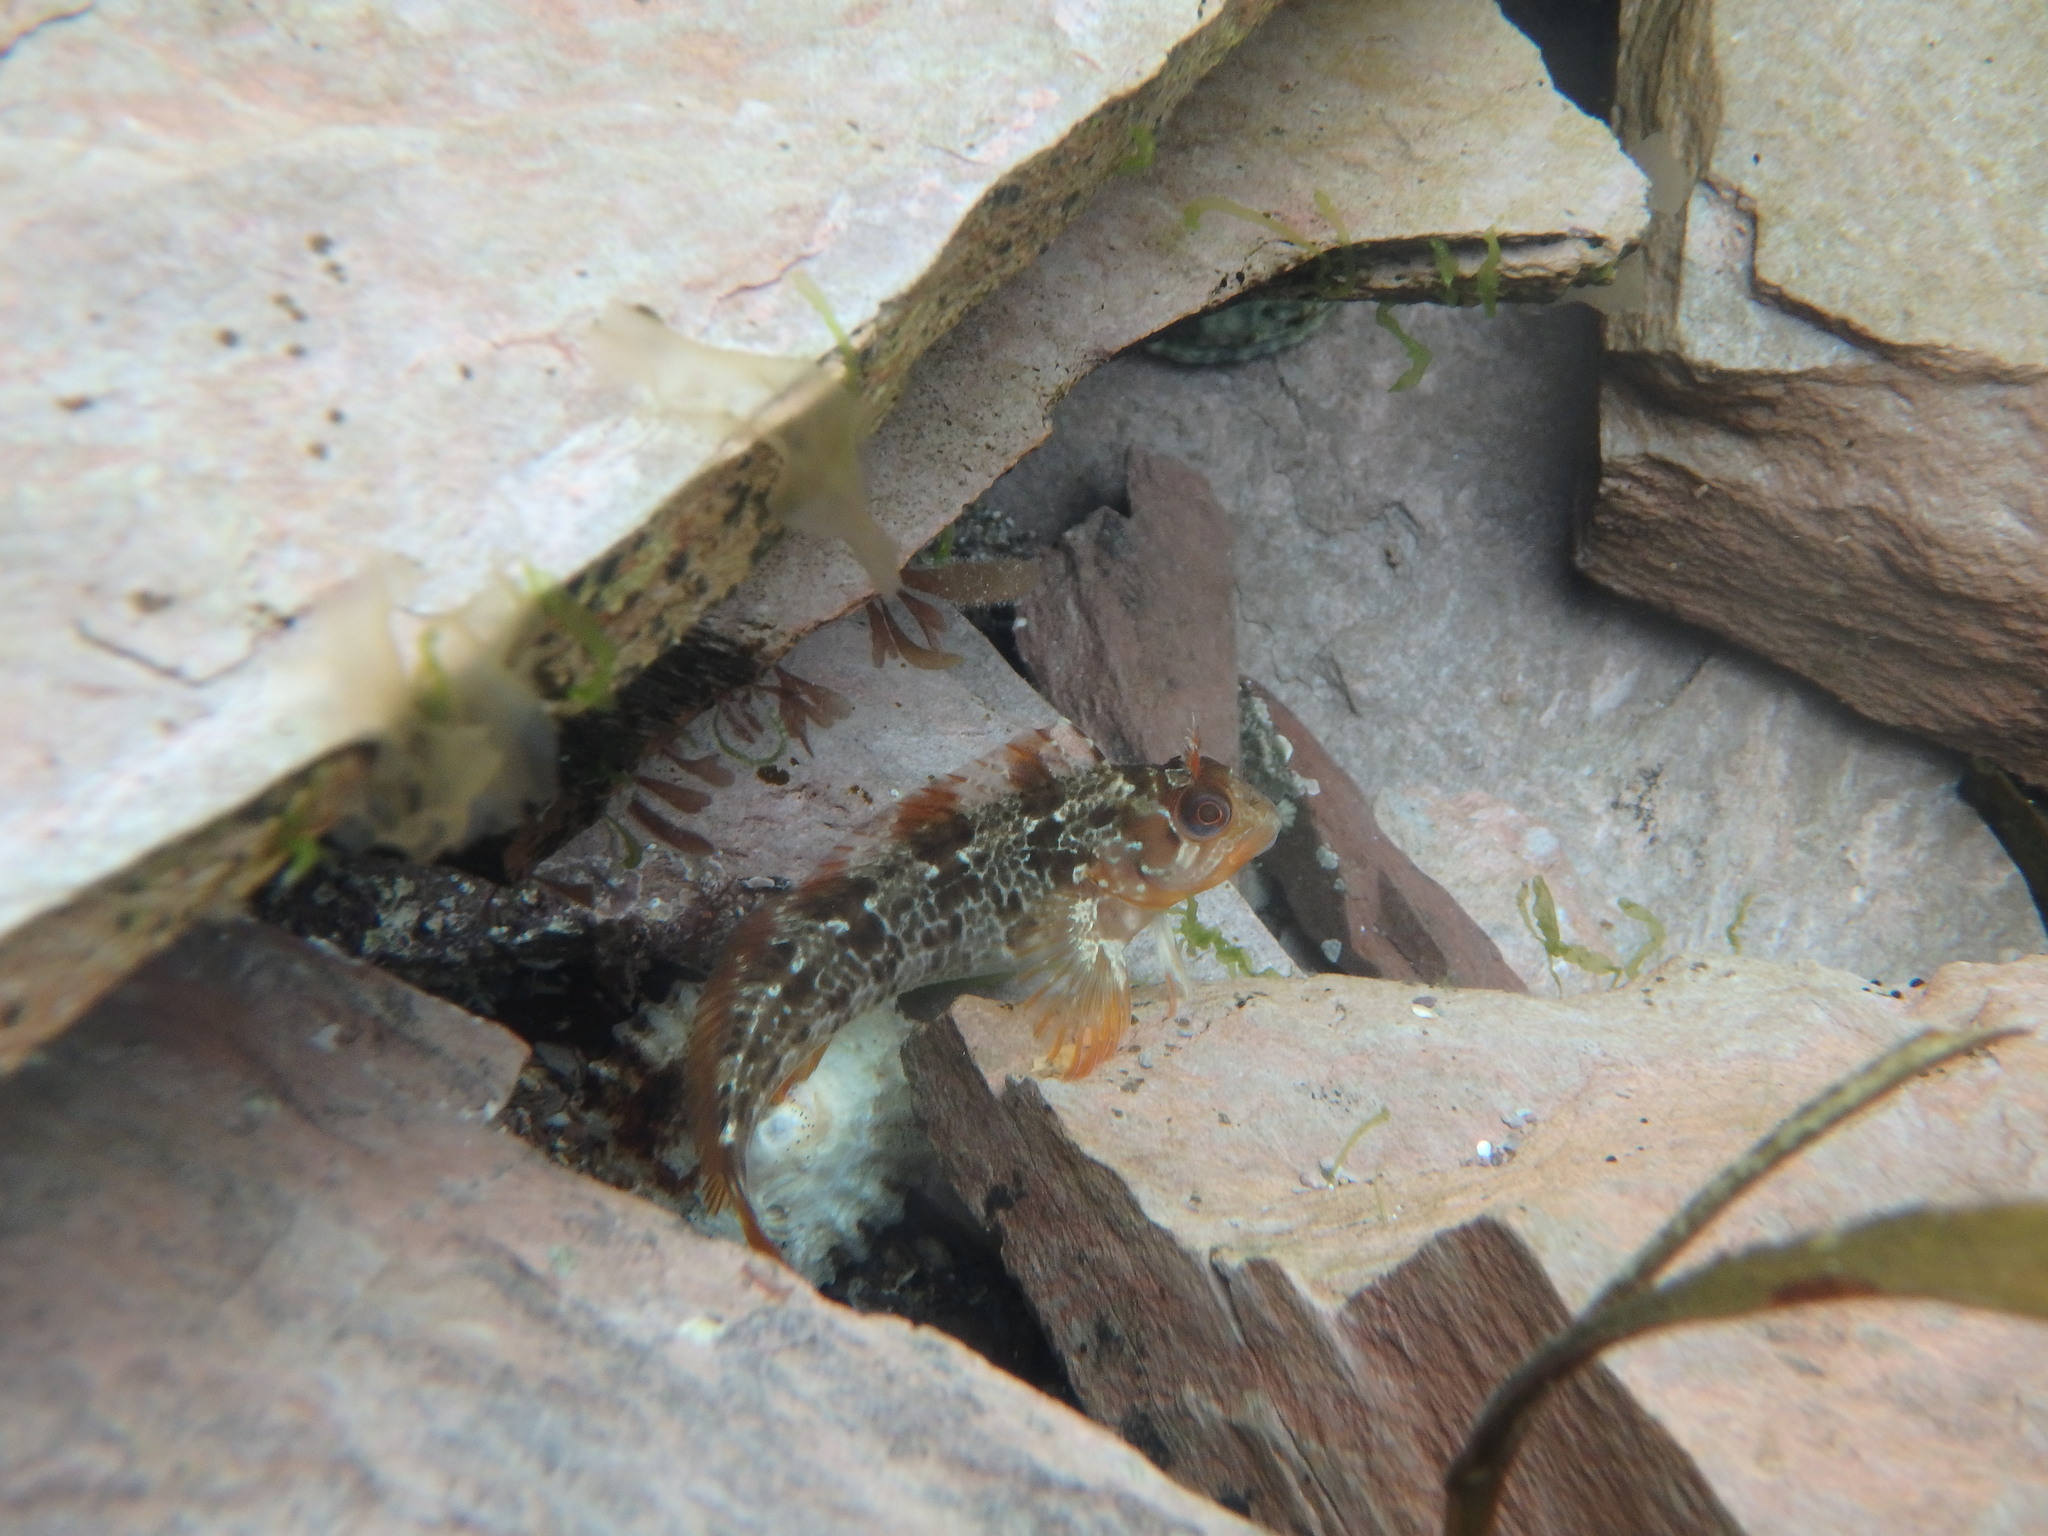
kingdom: Animalia
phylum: Chordata
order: Perciformes
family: Blenniidae
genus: Parablennius
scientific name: Parablennius gattorugine
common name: Tompot blenny
